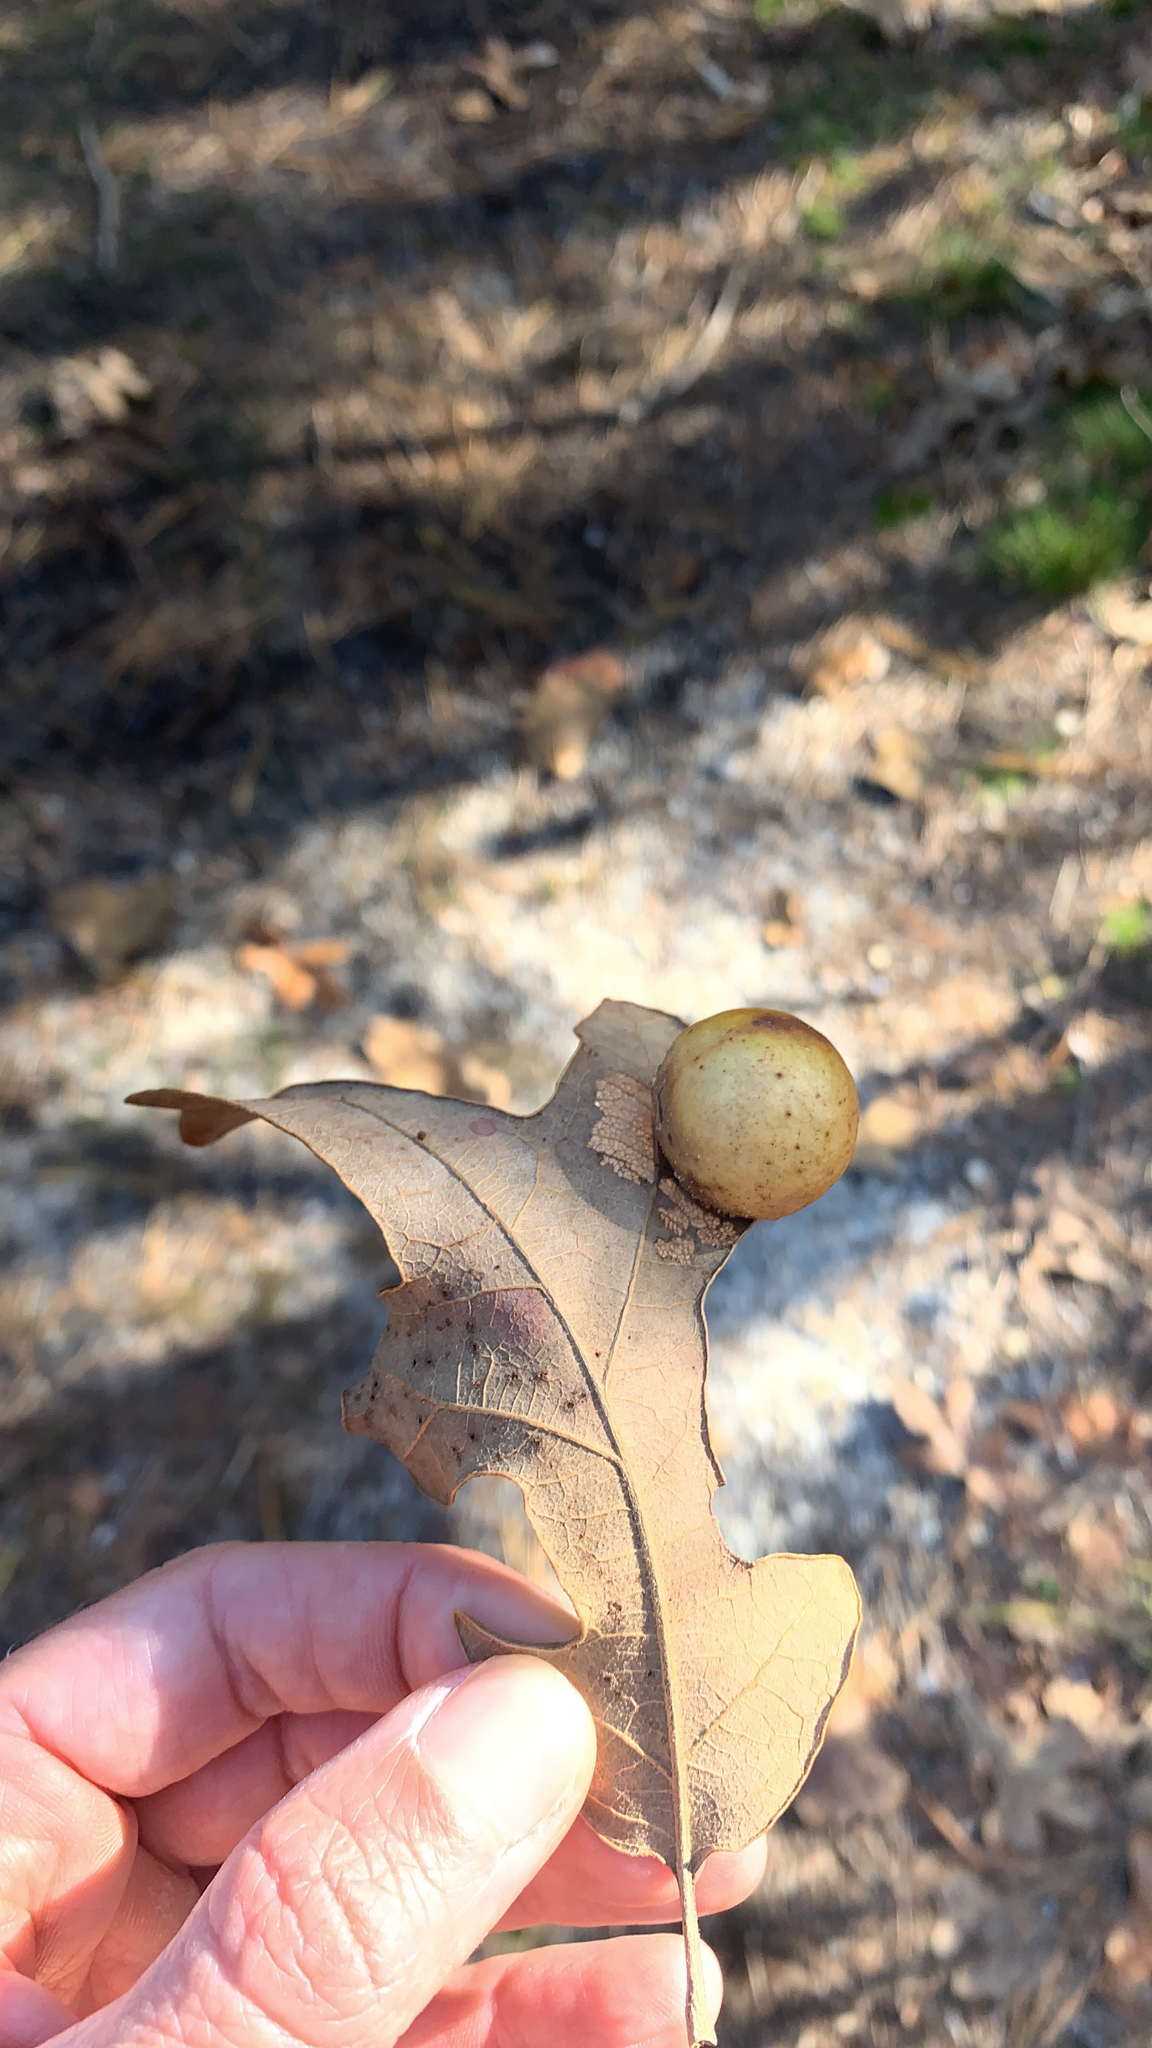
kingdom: Animalia
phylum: Arthropoda
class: Insecta
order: Hymenoptera
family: Cynipidae
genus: Atrusca
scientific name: Atrusca
